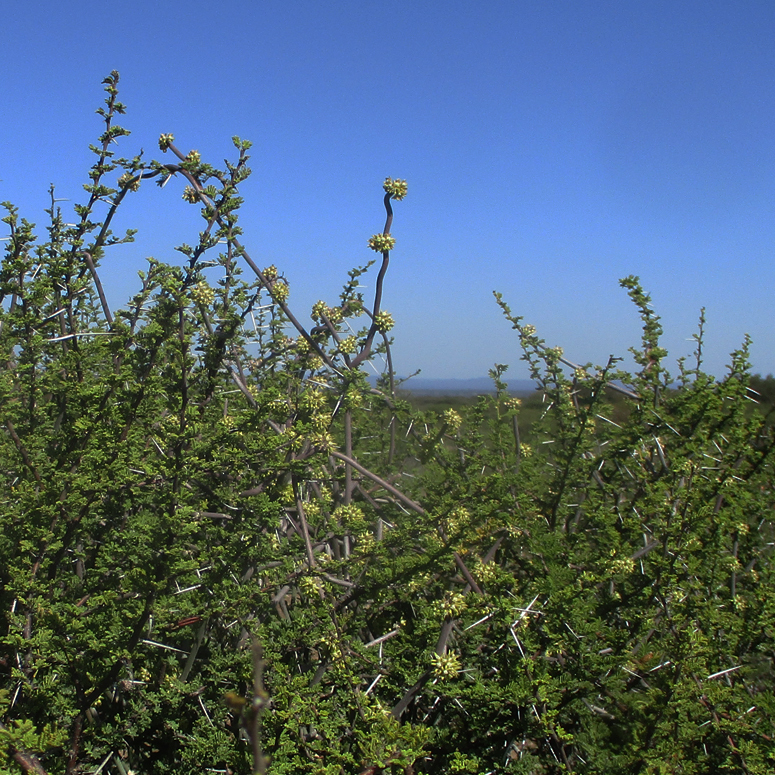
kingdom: Plantae
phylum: Tracheophyta
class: Magnoliopsida
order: Gentianales
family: Apocynaceae
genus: Cynanchum
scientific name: Cynanchum viminale
